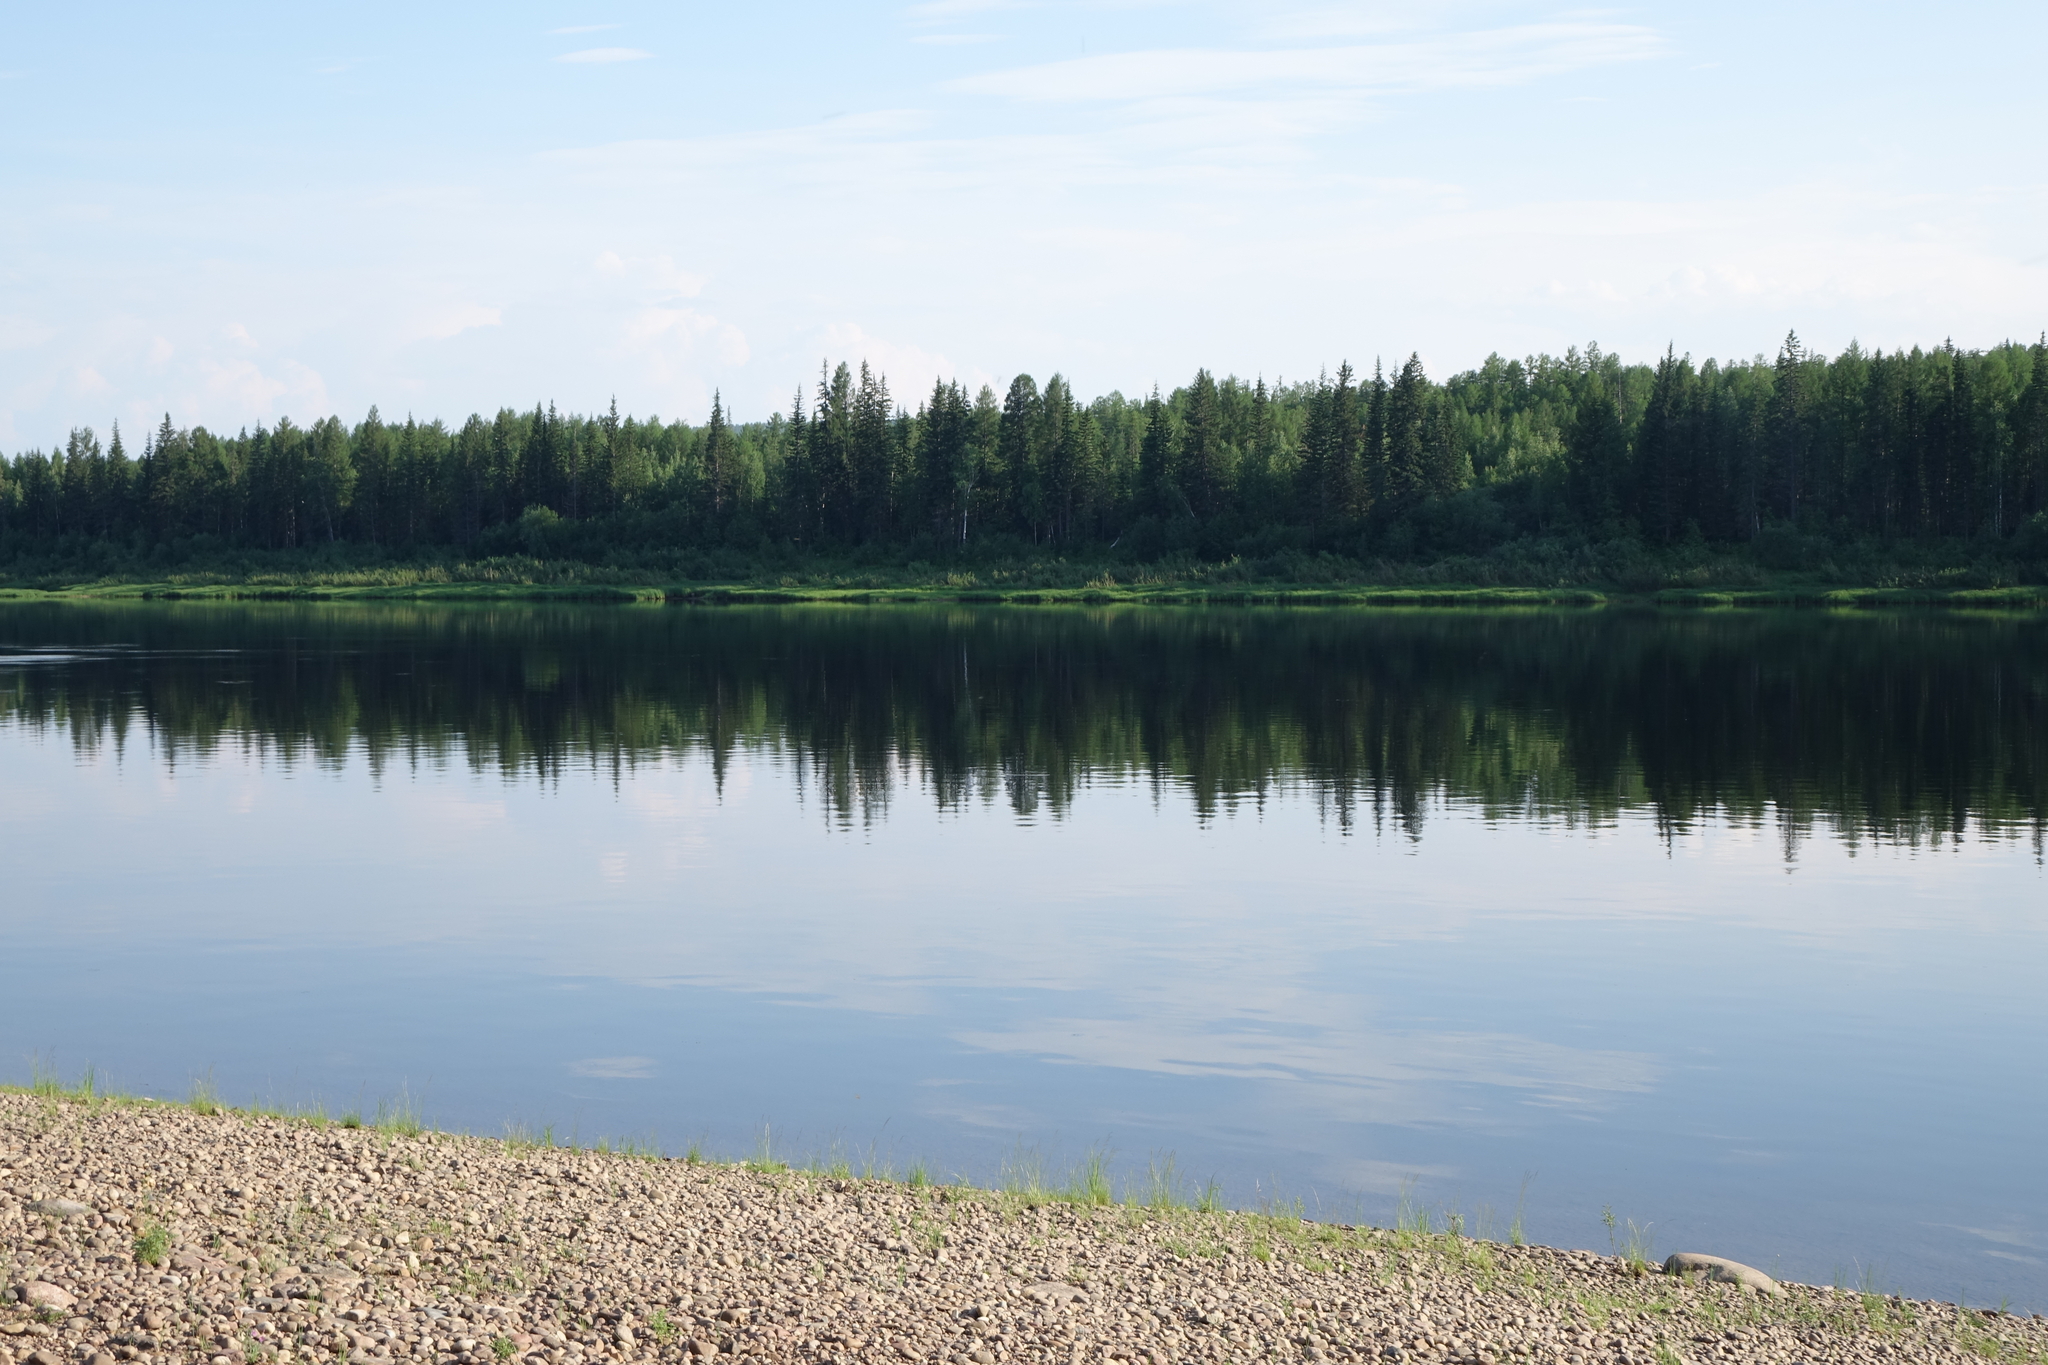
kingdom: Plantae
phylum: Tracheophyta
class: Pinopsida
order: Pinales
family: Pinaceae
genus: Picea
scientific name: Picea obovata
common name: Siberian spruce
